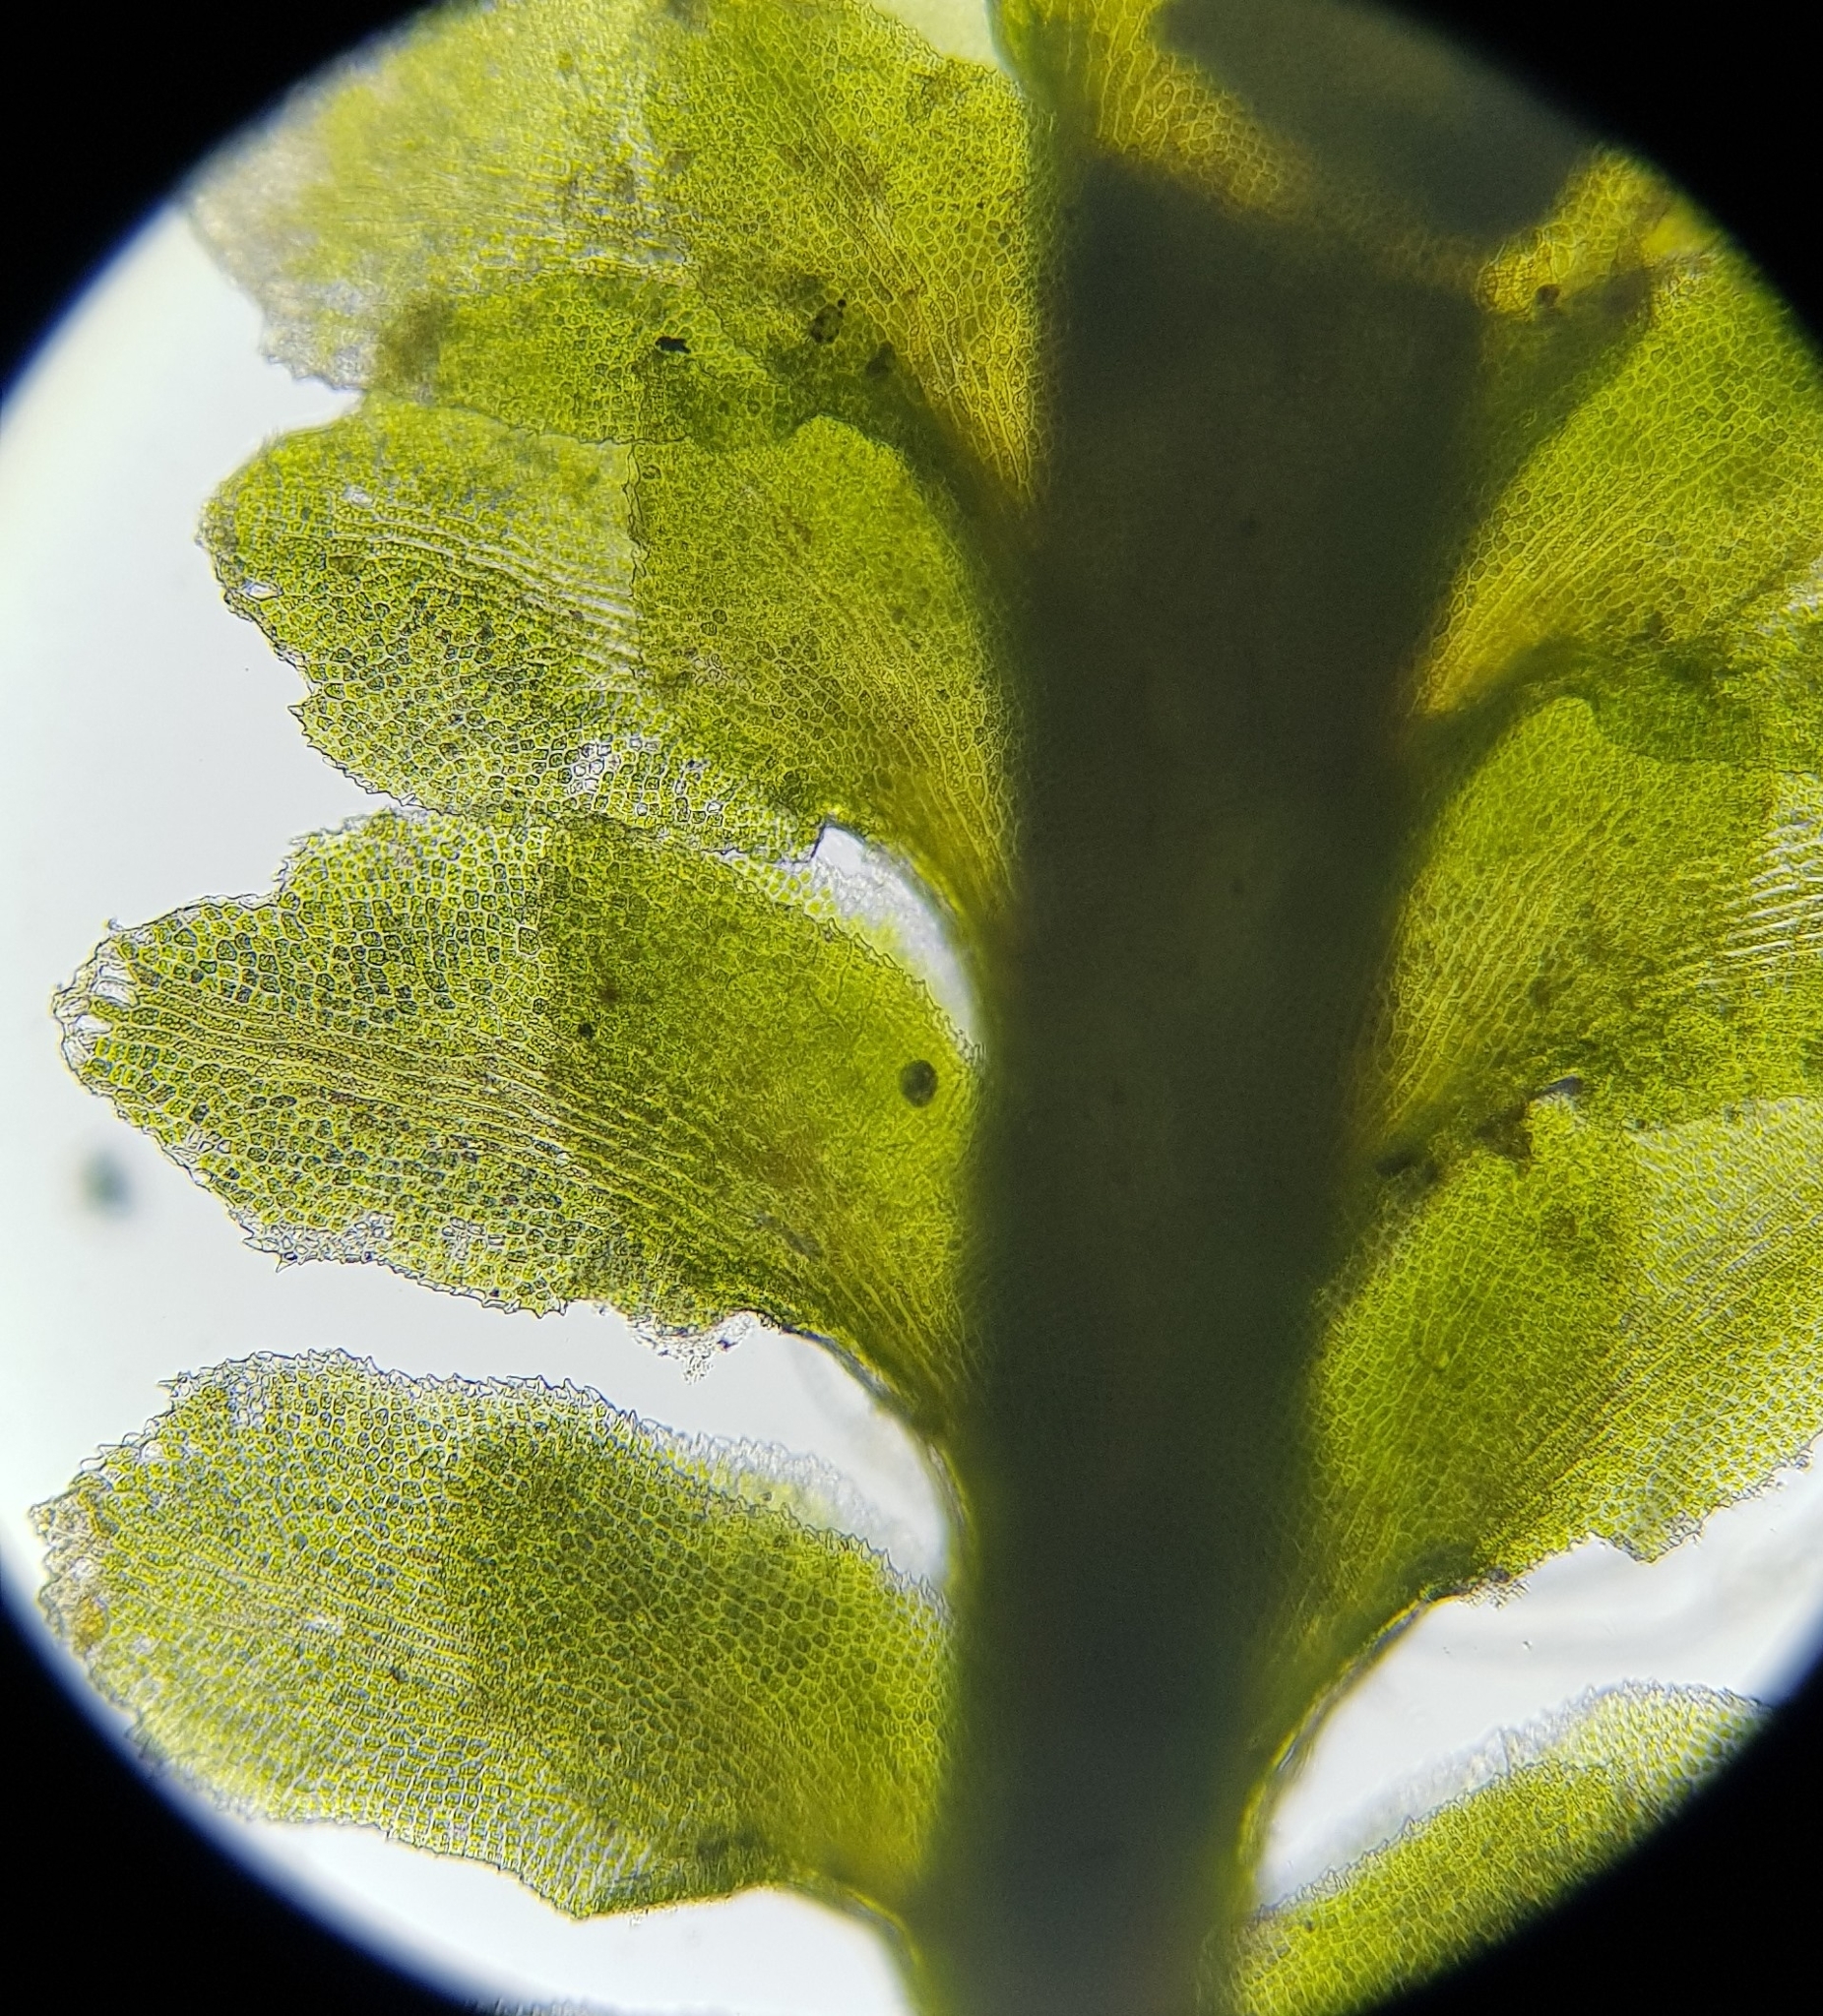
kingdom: Plantae
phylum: Marchantiophyta
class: Jungermanniopsida
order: Jungermanniales
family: Scapaniaceae
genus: Diplophyllum
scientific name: Diplophyllum albicans
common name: White earwort
